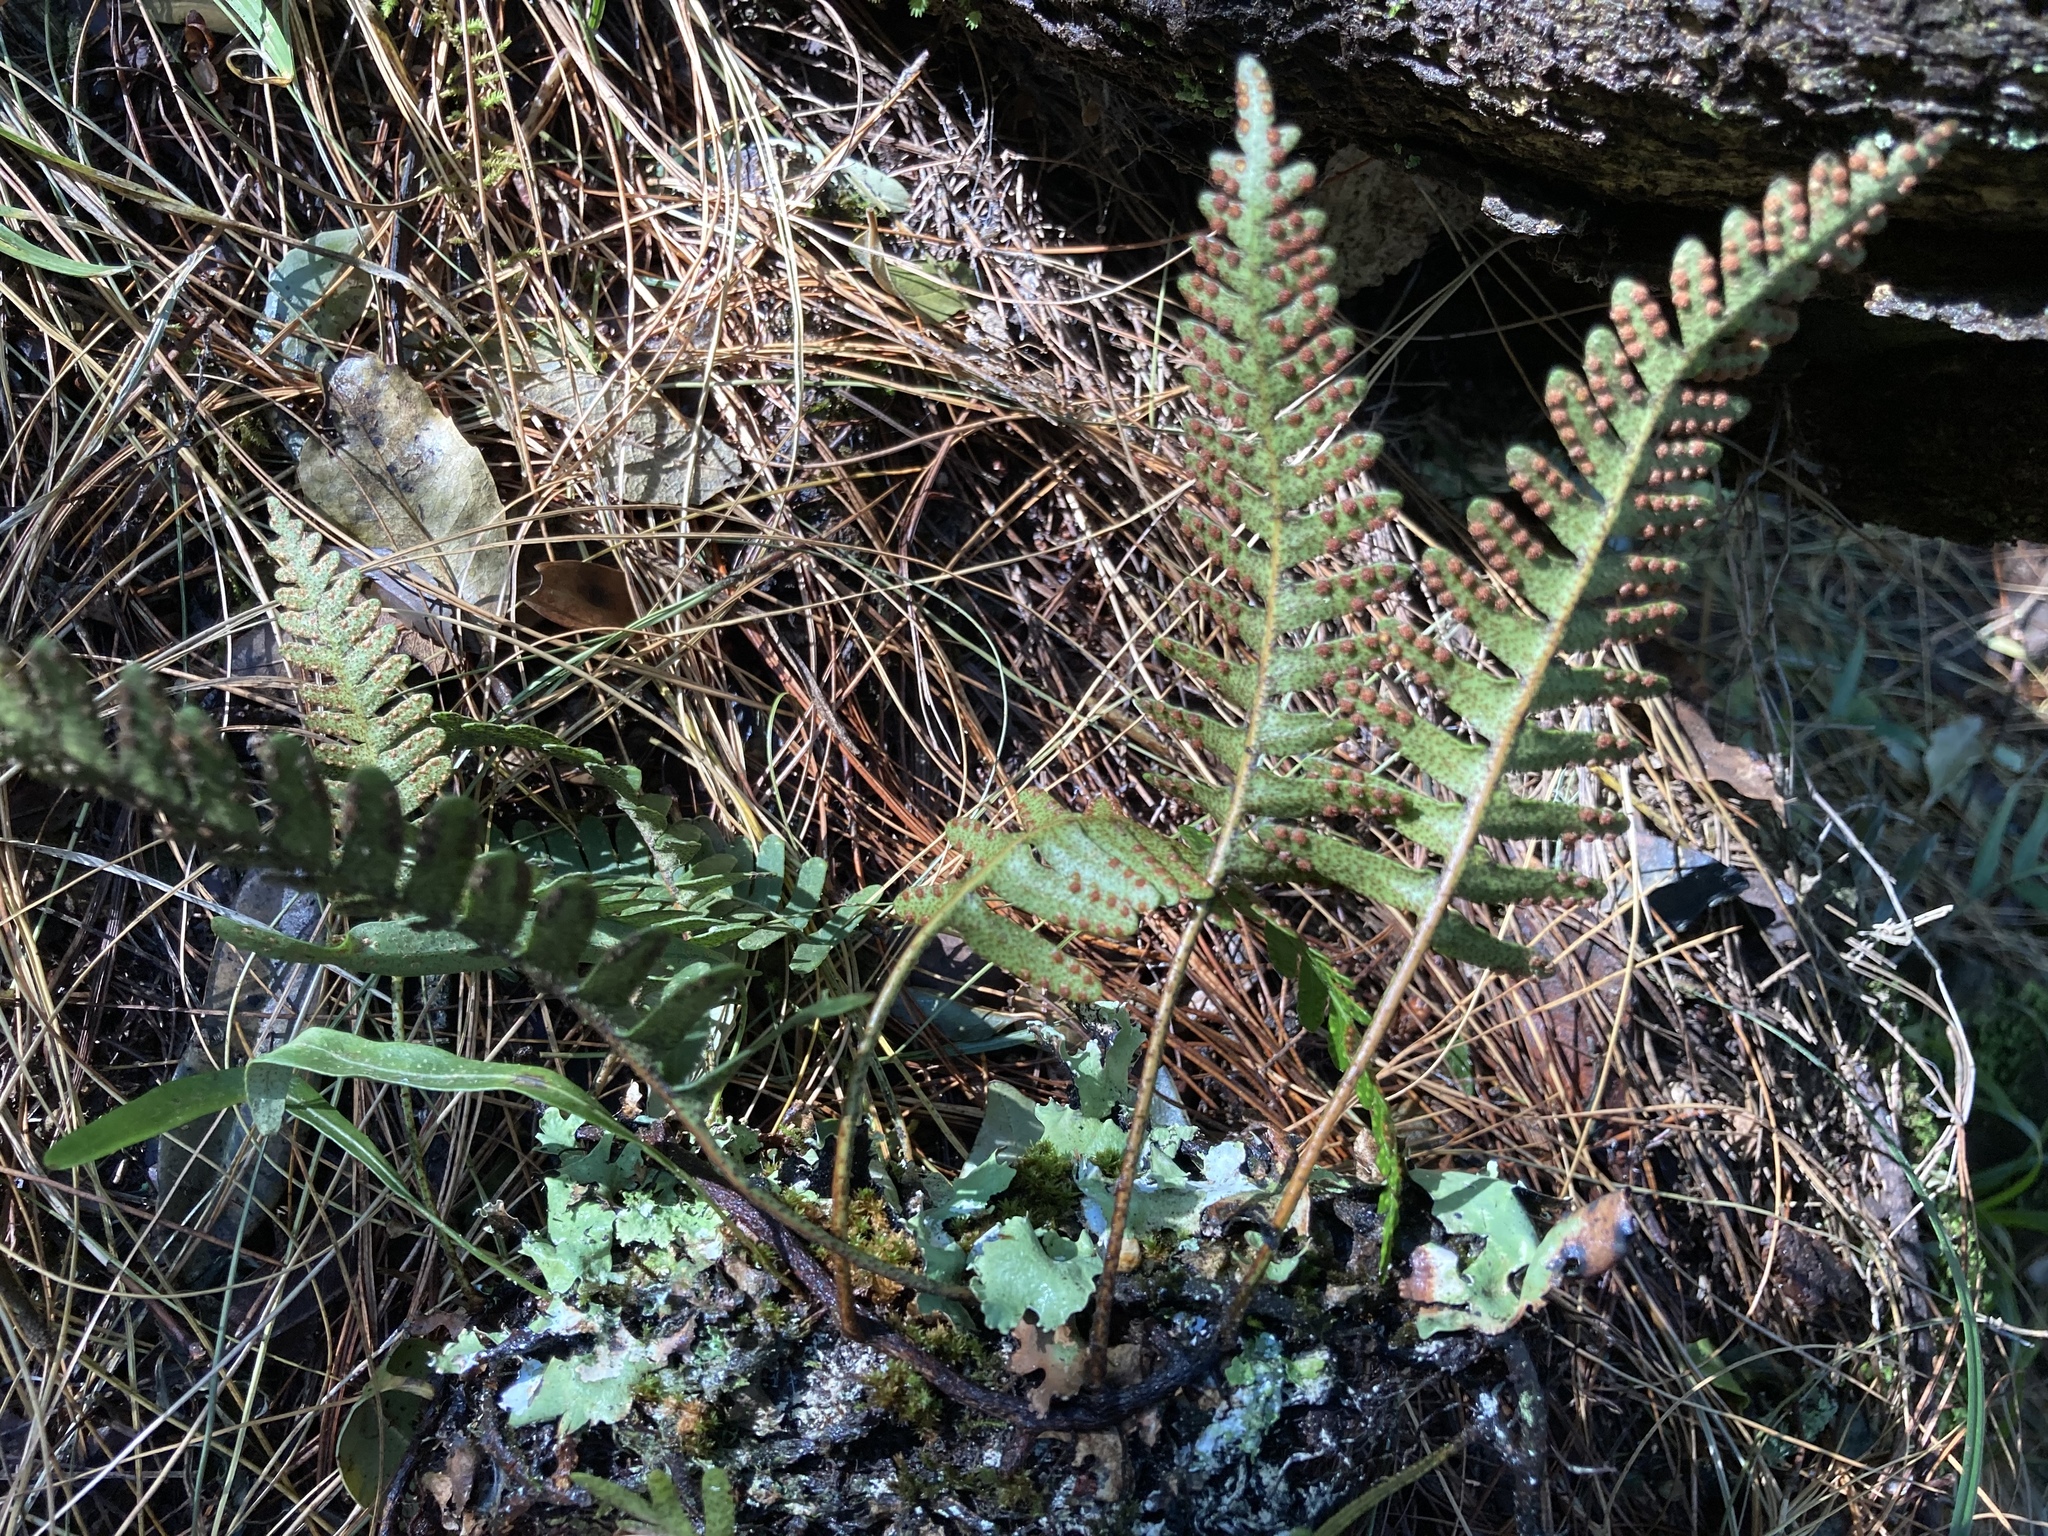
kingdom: Plantae
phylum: Tracheophyta
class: Polypodiopsida
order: Polypodiales
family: Polypodiaceae
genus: Pleopeltis
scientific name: Pleopeltis ecklonii
